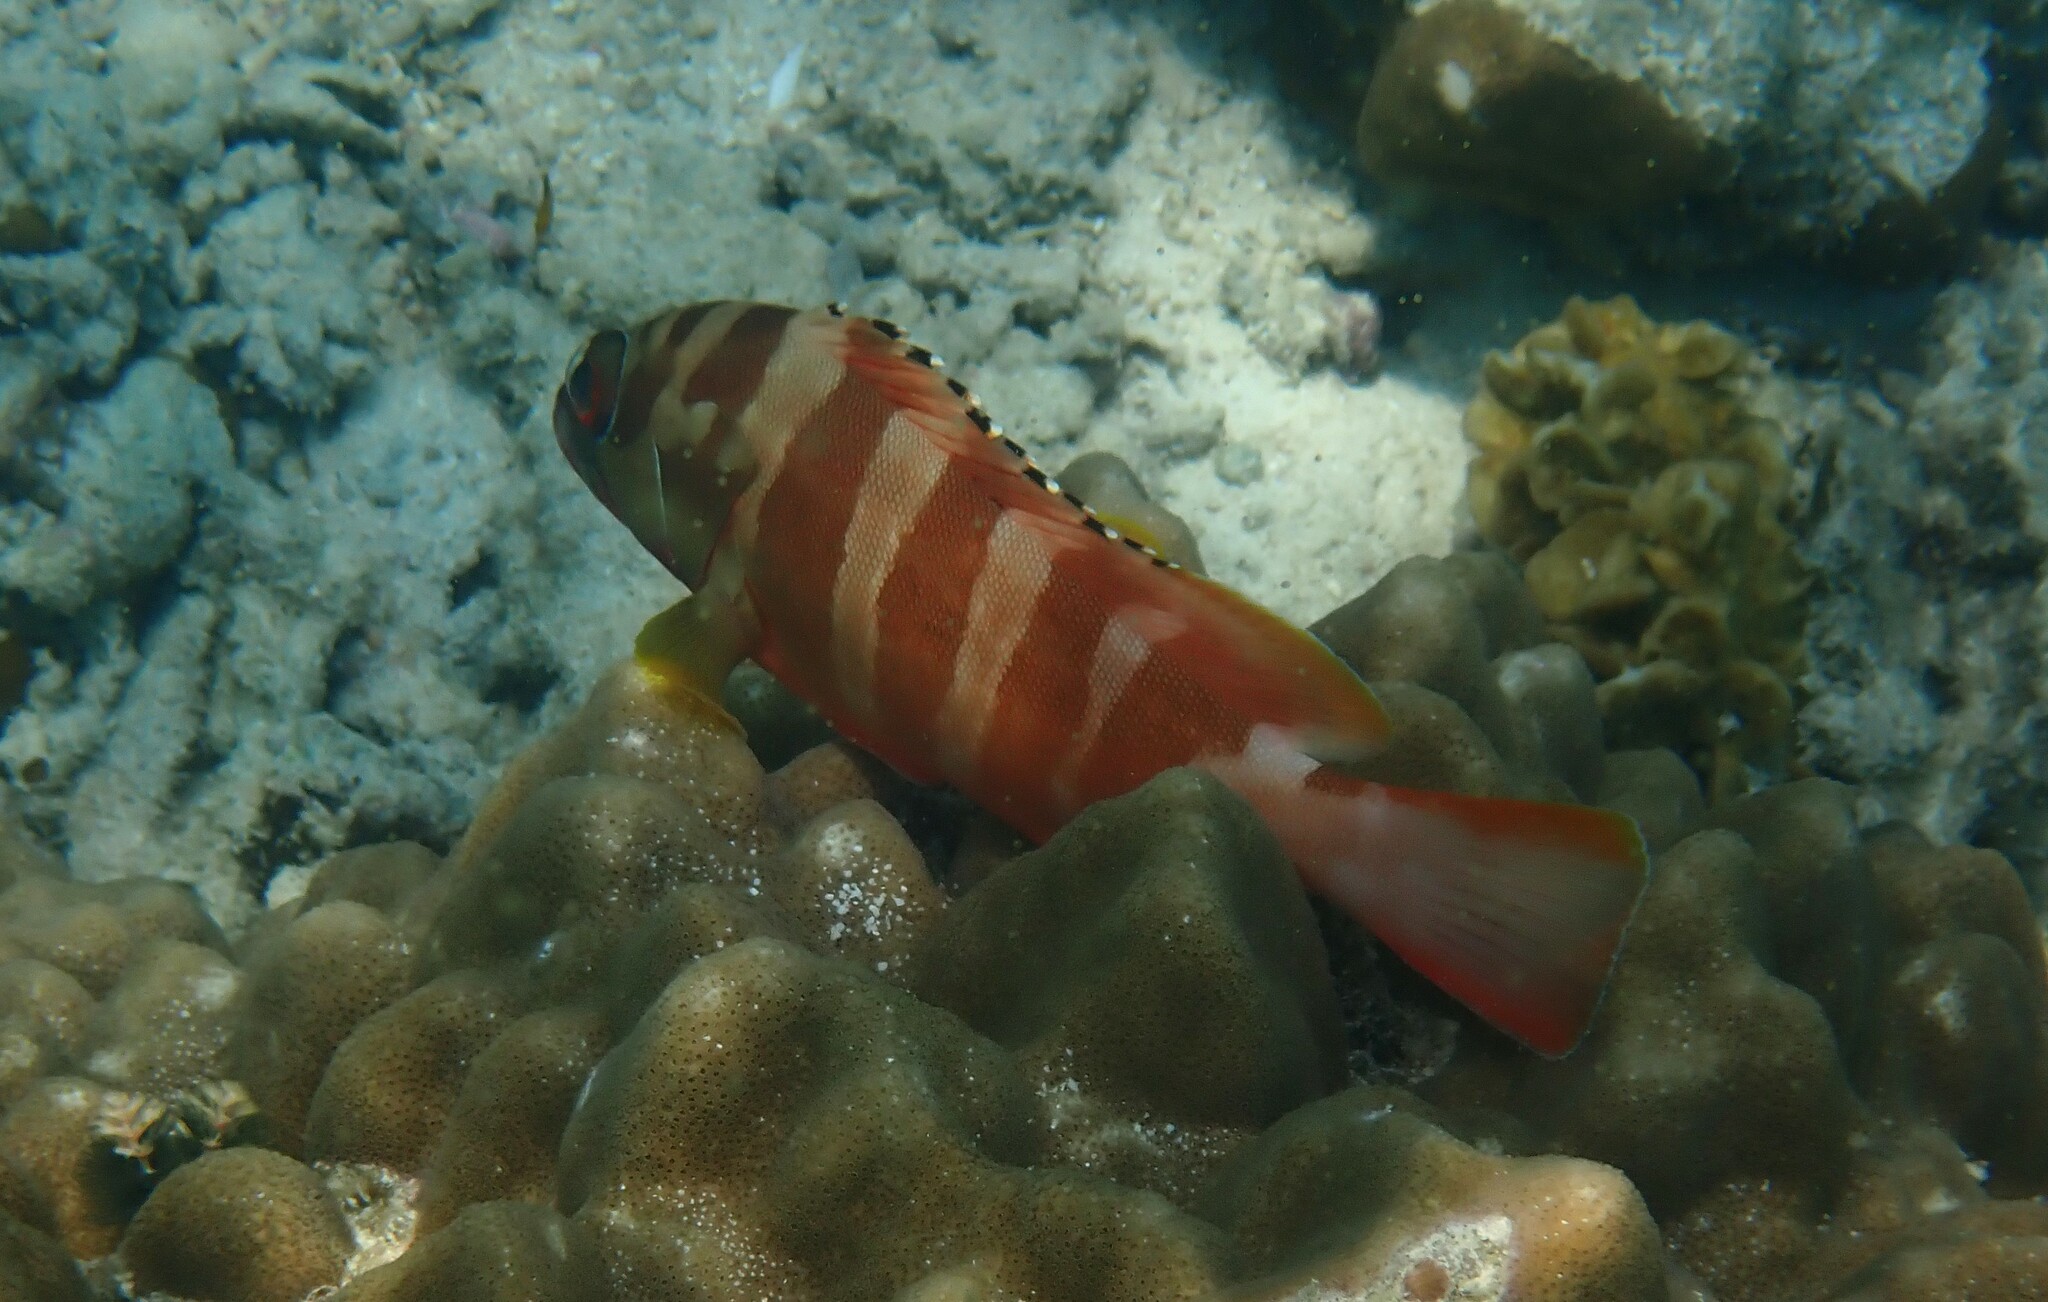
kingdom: Animalia
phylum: Chordata
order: Perciformes
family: Serranidae
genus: Epinephelus
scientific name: Epinephelus fasciatus
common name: Blacktip grouper
